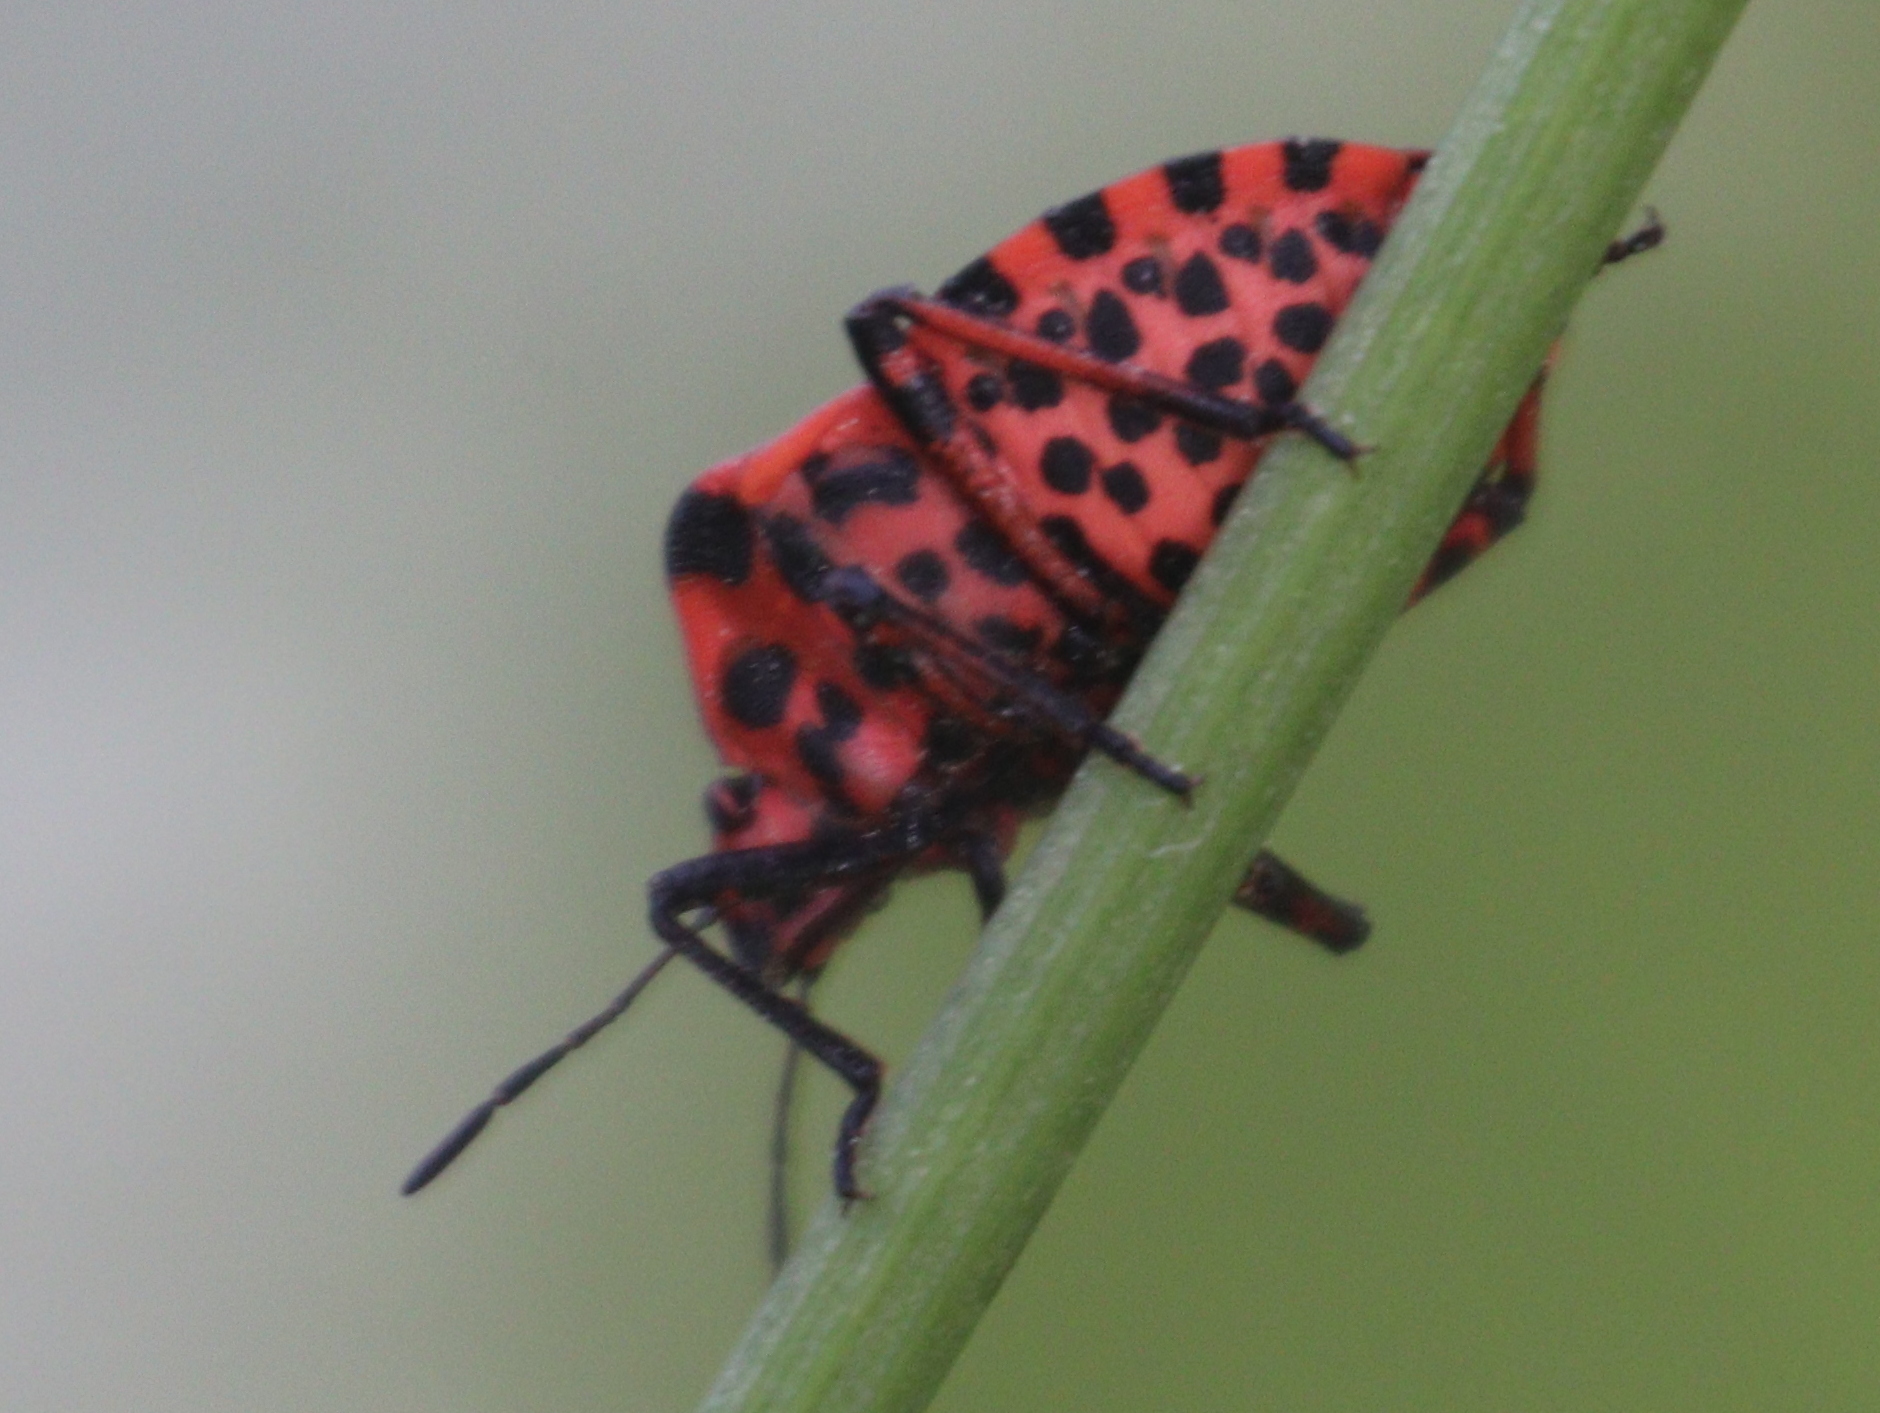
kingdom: Animalia
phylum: Arthropoda
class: Insecta
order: Hemiptera
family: Pentatomidae
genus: Graphosoma
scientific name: Graphosoma italicum
